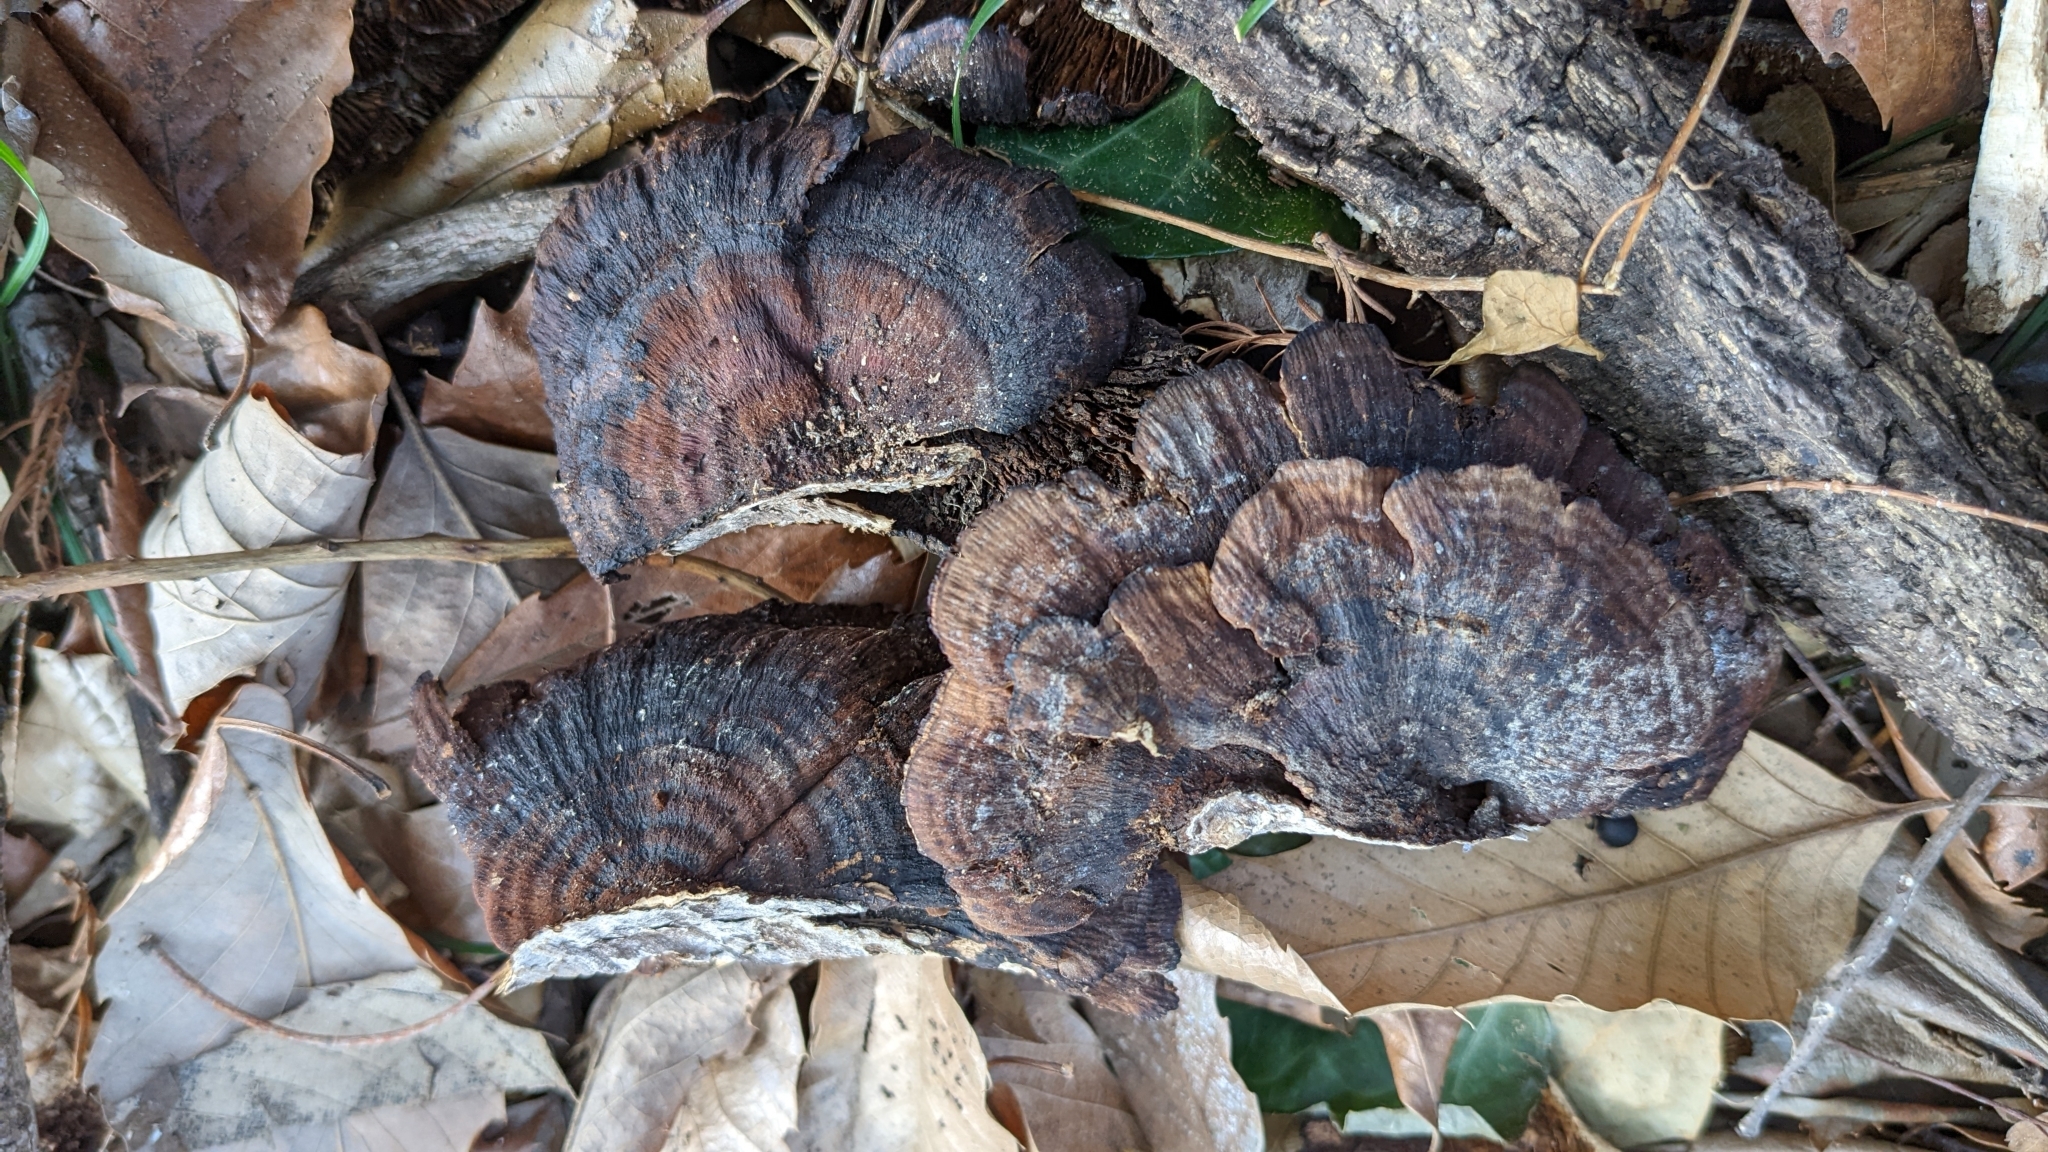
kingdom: Fungi
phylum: Basidiomycota
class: Agaricomycetes
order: Polyporales
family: Polyporaceae
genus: Daedaleopsis
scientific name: Daedaleopsis tricolor
